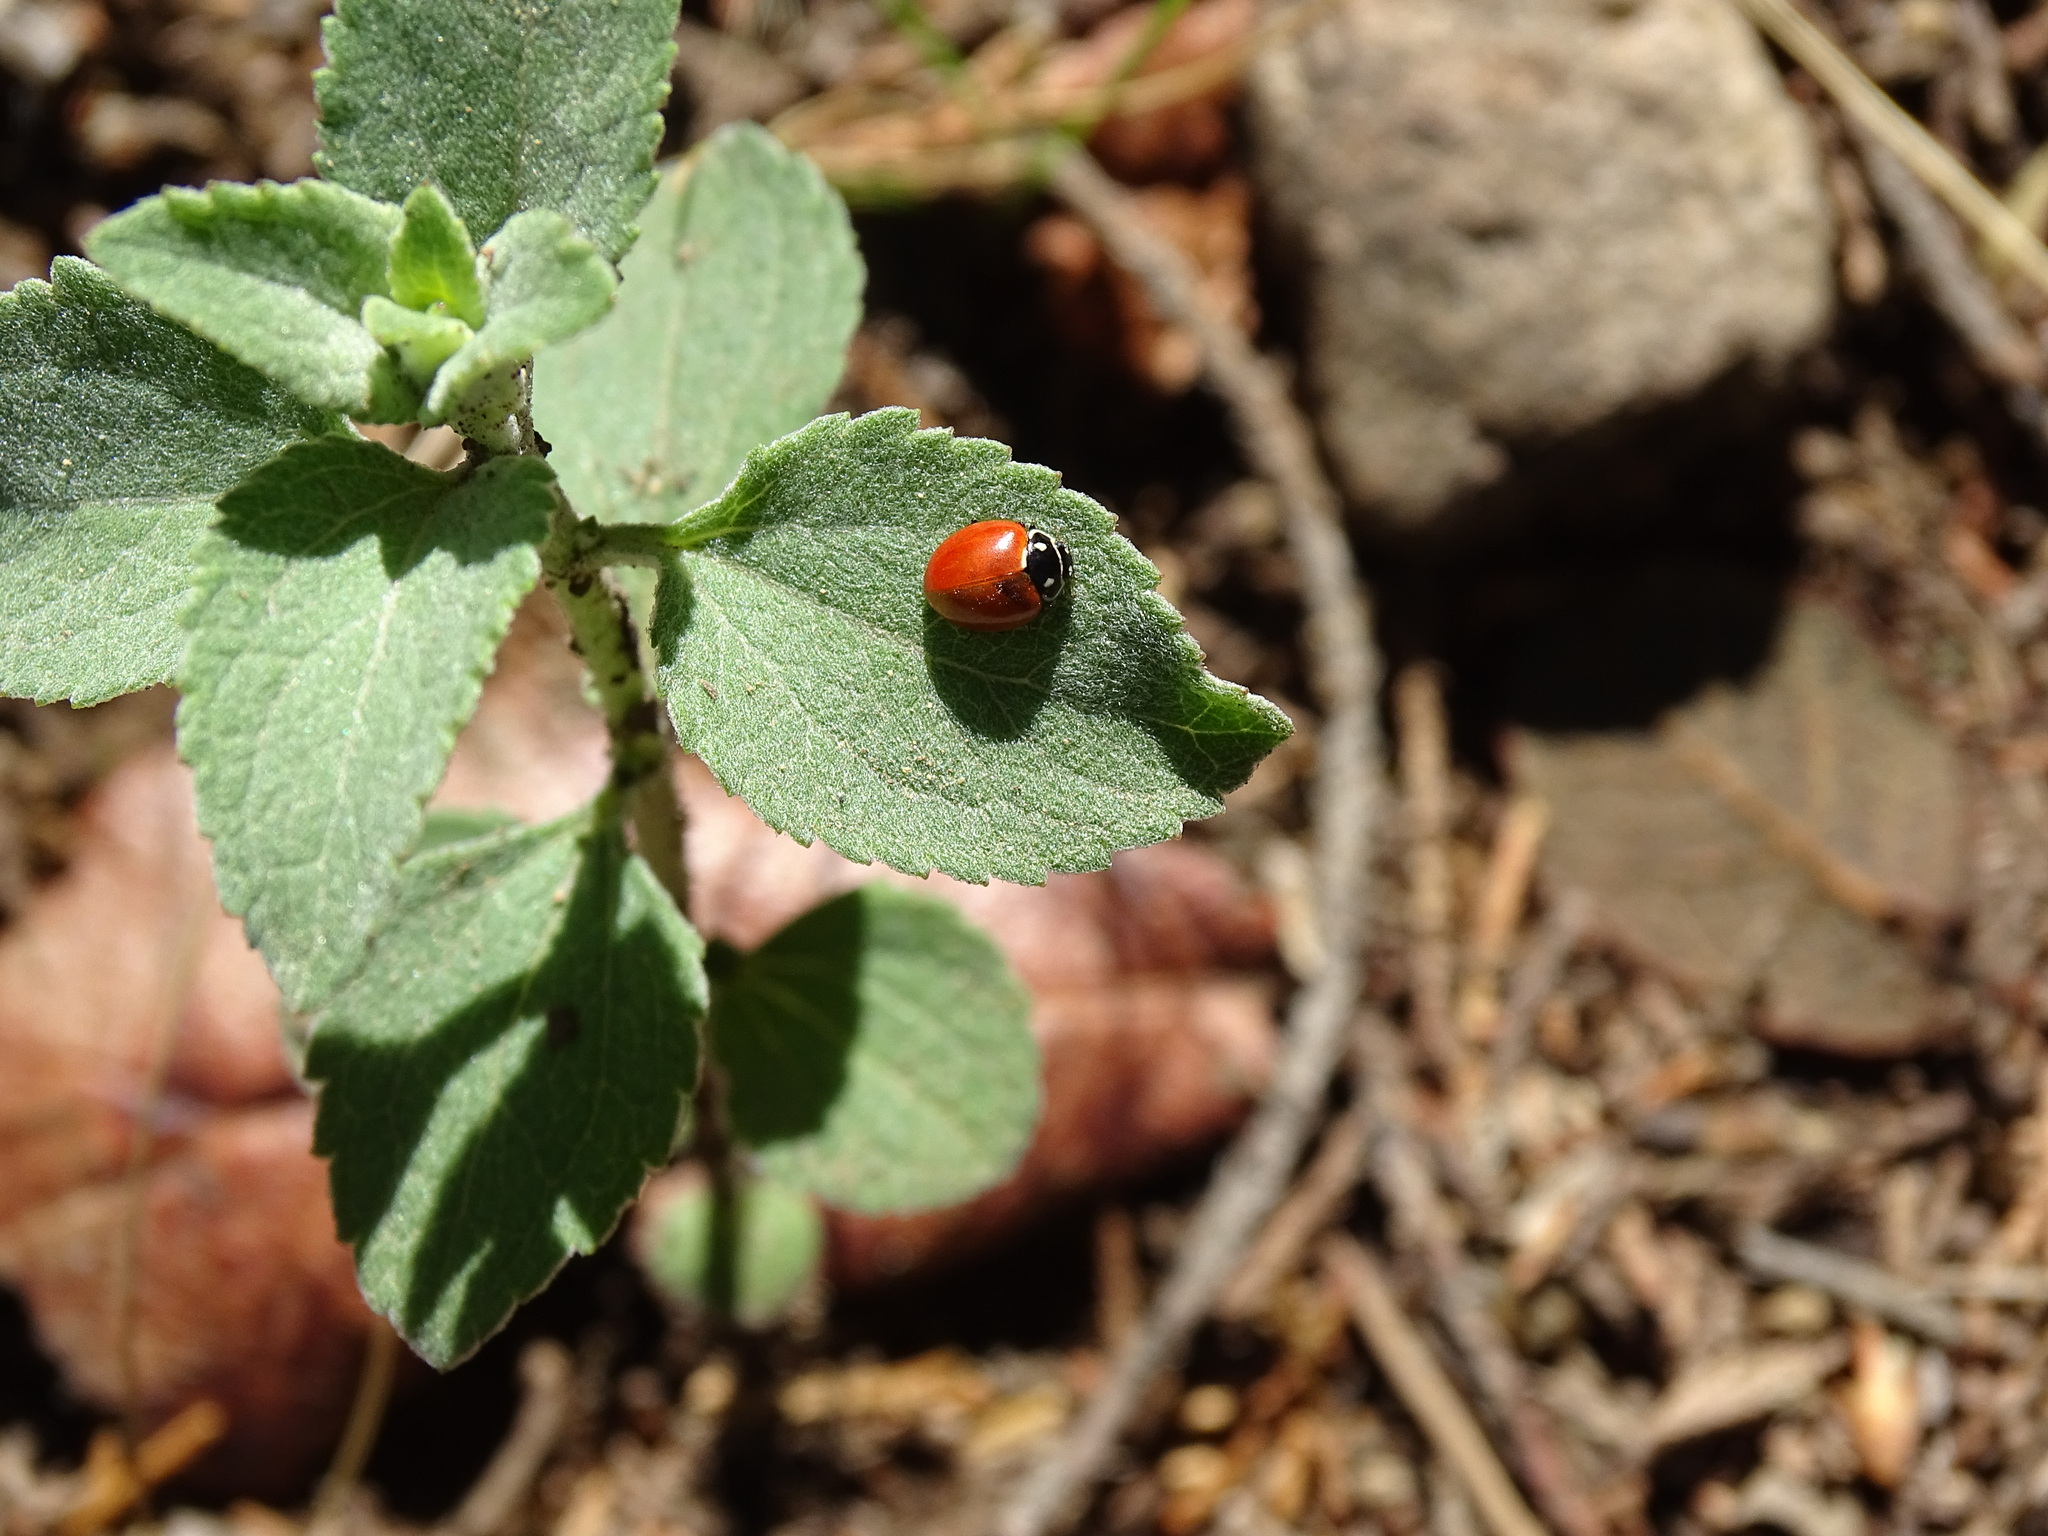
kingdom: Animalia
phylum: Arthropoda
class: Insecta
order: Coleoptera
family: Coccinellidae
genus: Cycloneda
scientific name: Cycloneda emarginata
